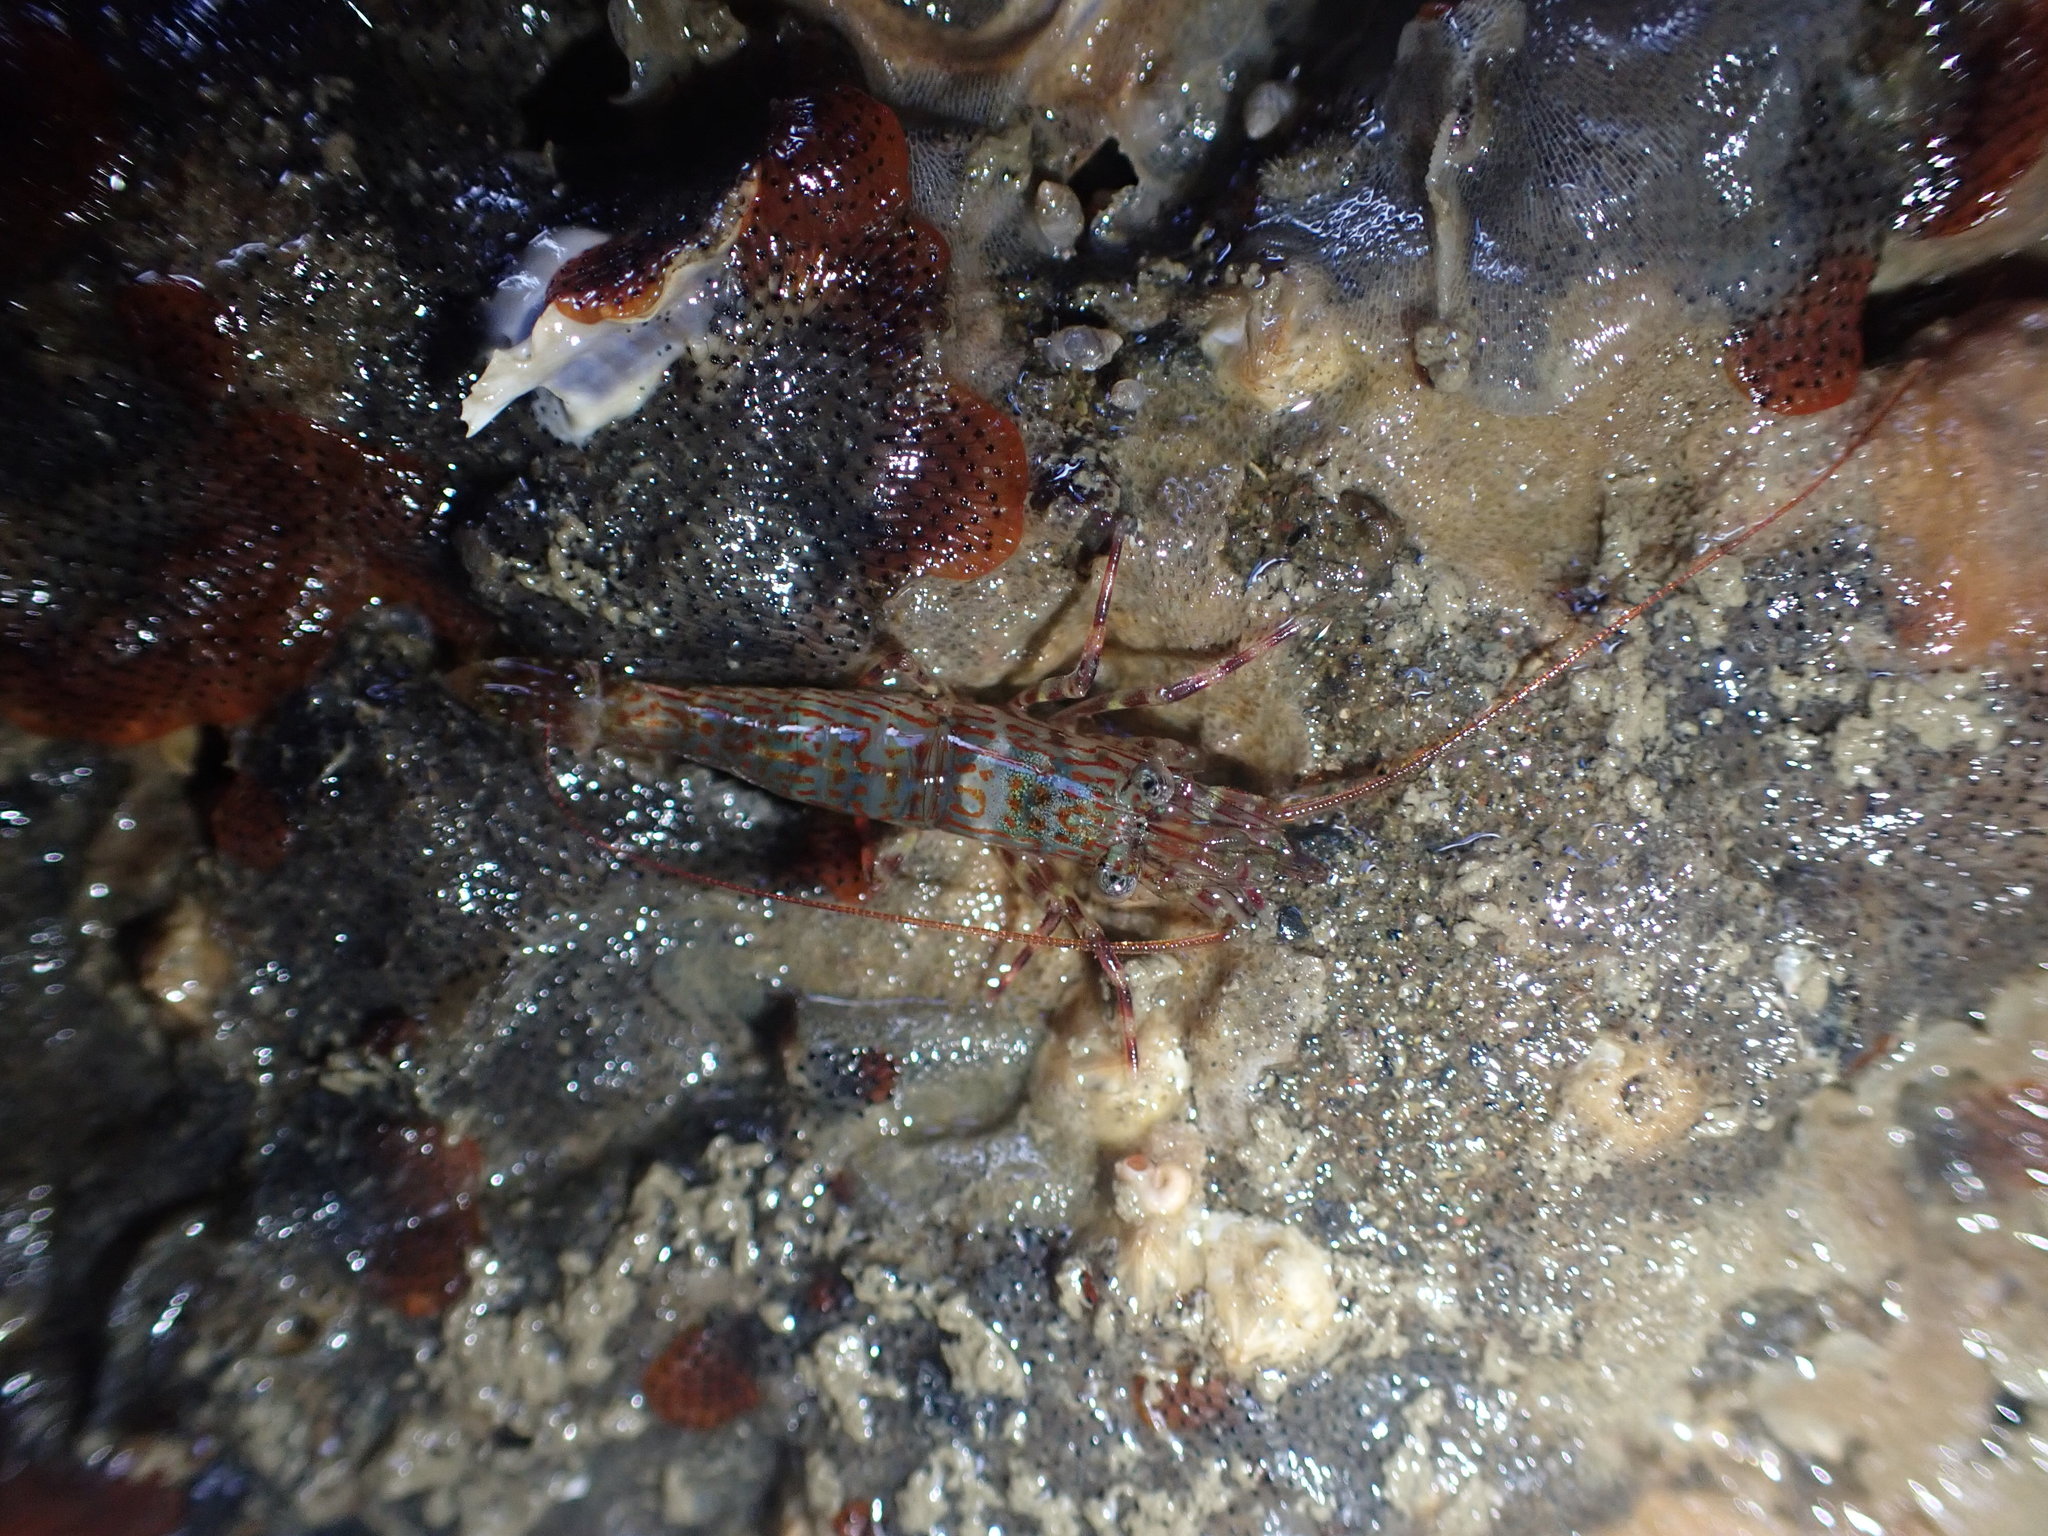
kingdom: Animalia
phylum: Mollusca
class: Gastropoda
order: Ellobiida
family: Ellobiidae
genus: Leuconopsis
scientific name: Leuconopsis obsoleta
